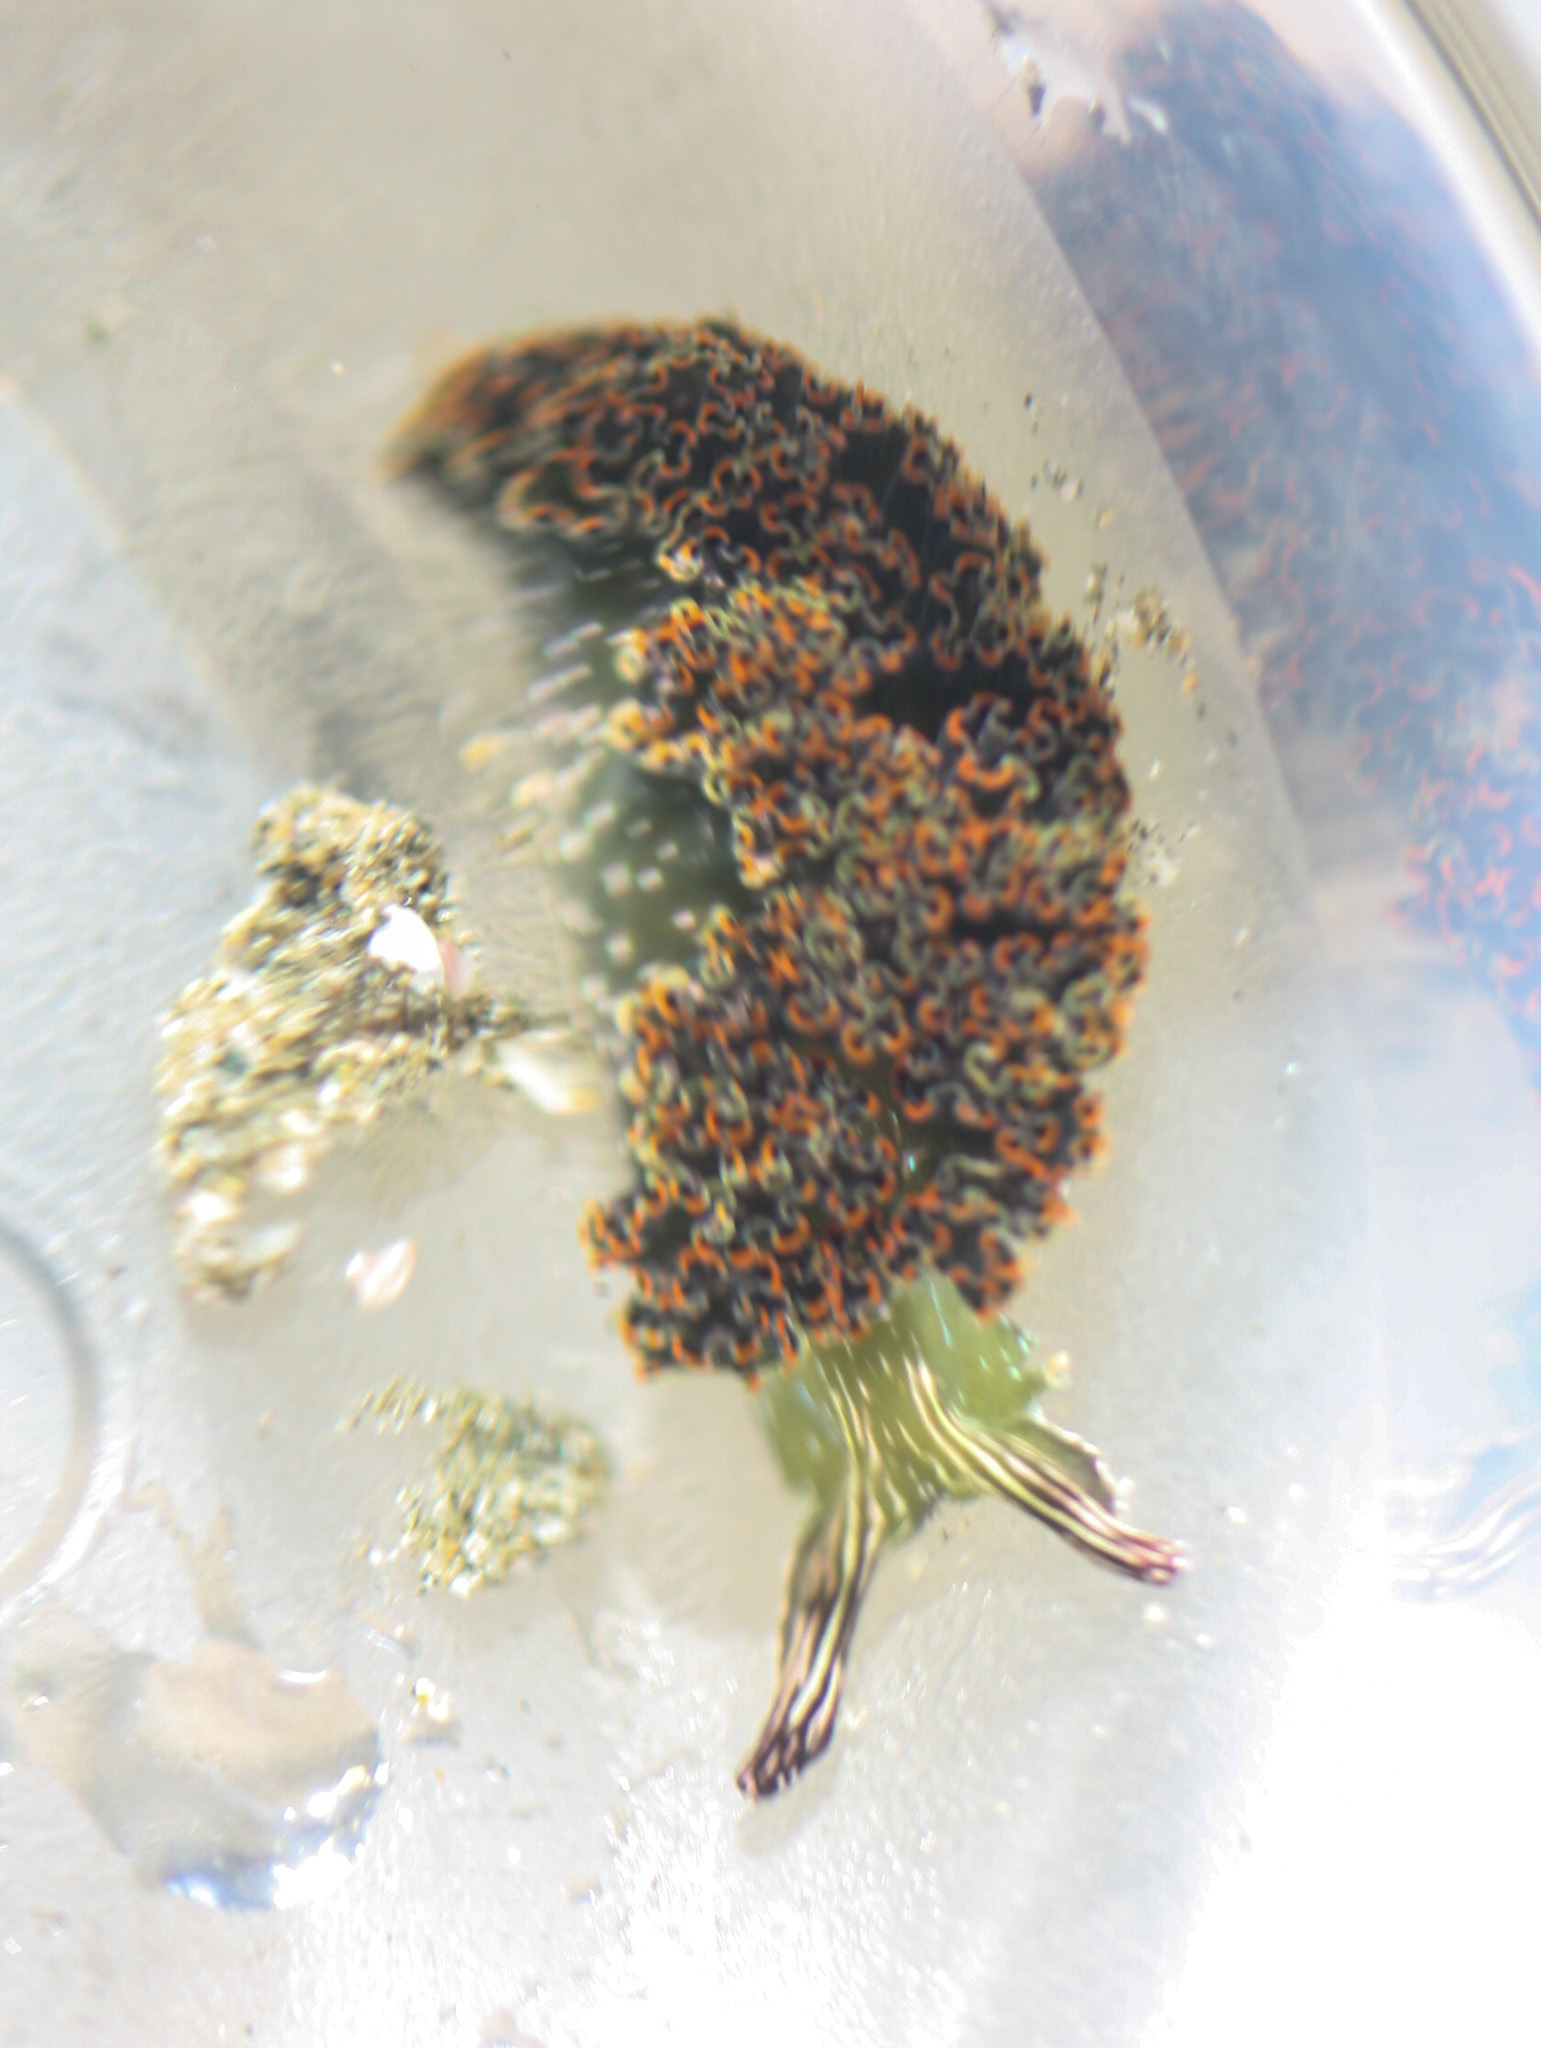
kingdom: Animalia
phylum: Mollusca
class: Gastropoda
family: Plakobranchidae
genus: Elysia
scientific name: Elysia diomedea
